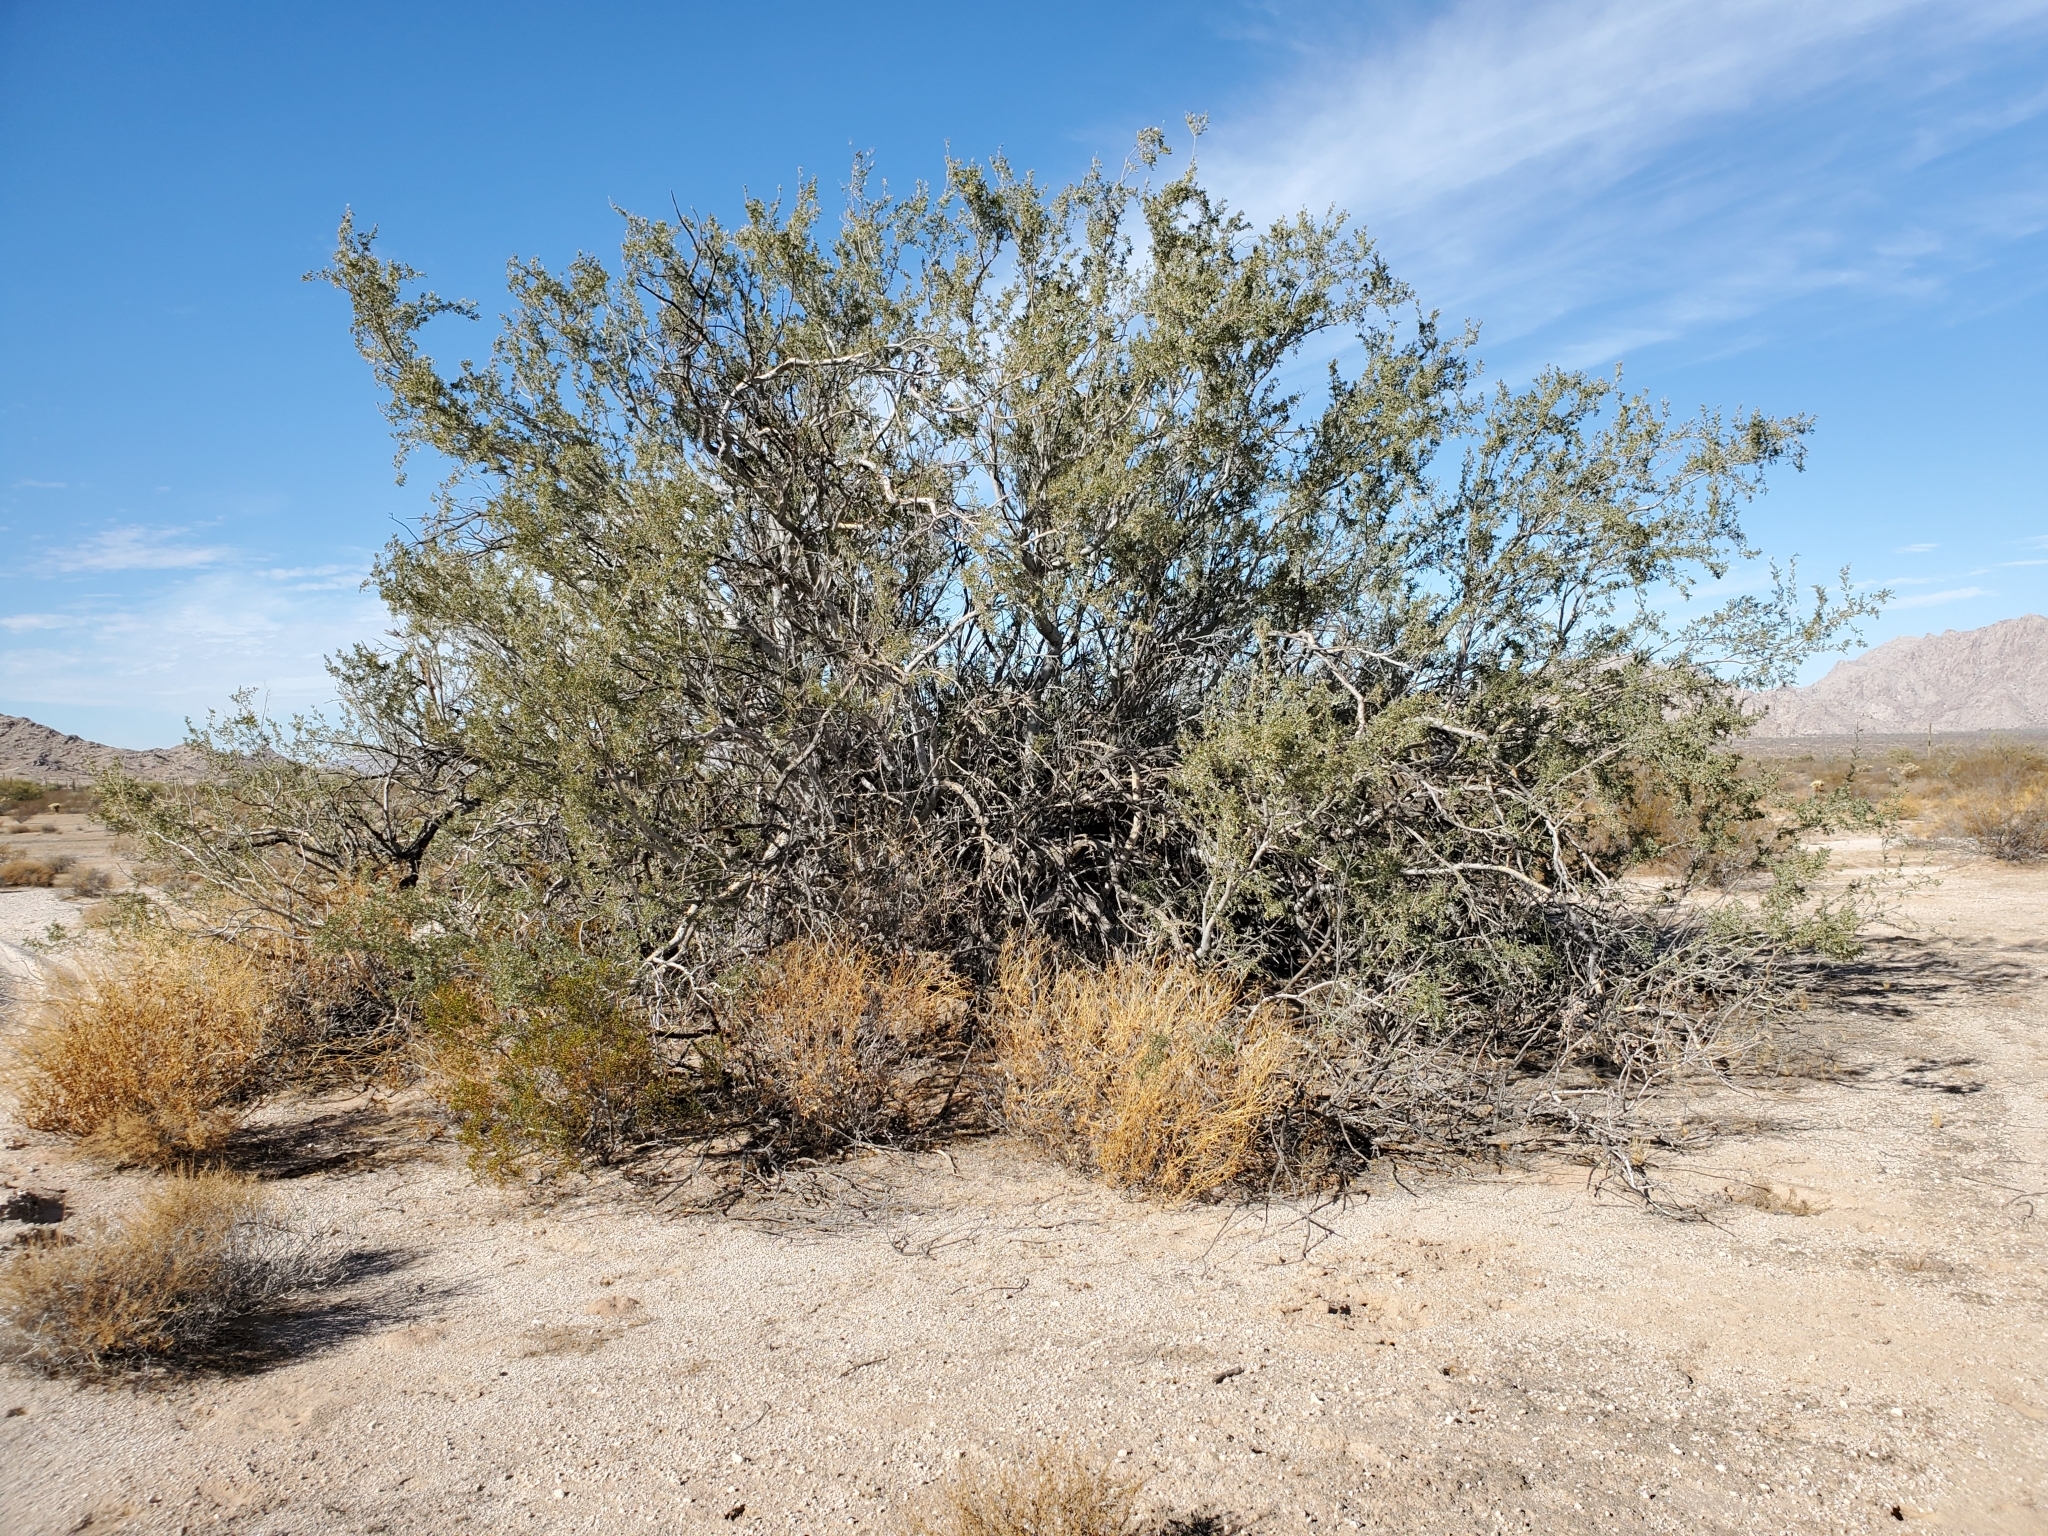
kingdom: Plantae
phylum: Tracheophyta
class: Magnoliopsida
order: Fabales
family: Fabaceae
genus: Olneya
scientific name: Olneya tesota
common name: Desert ironwood
